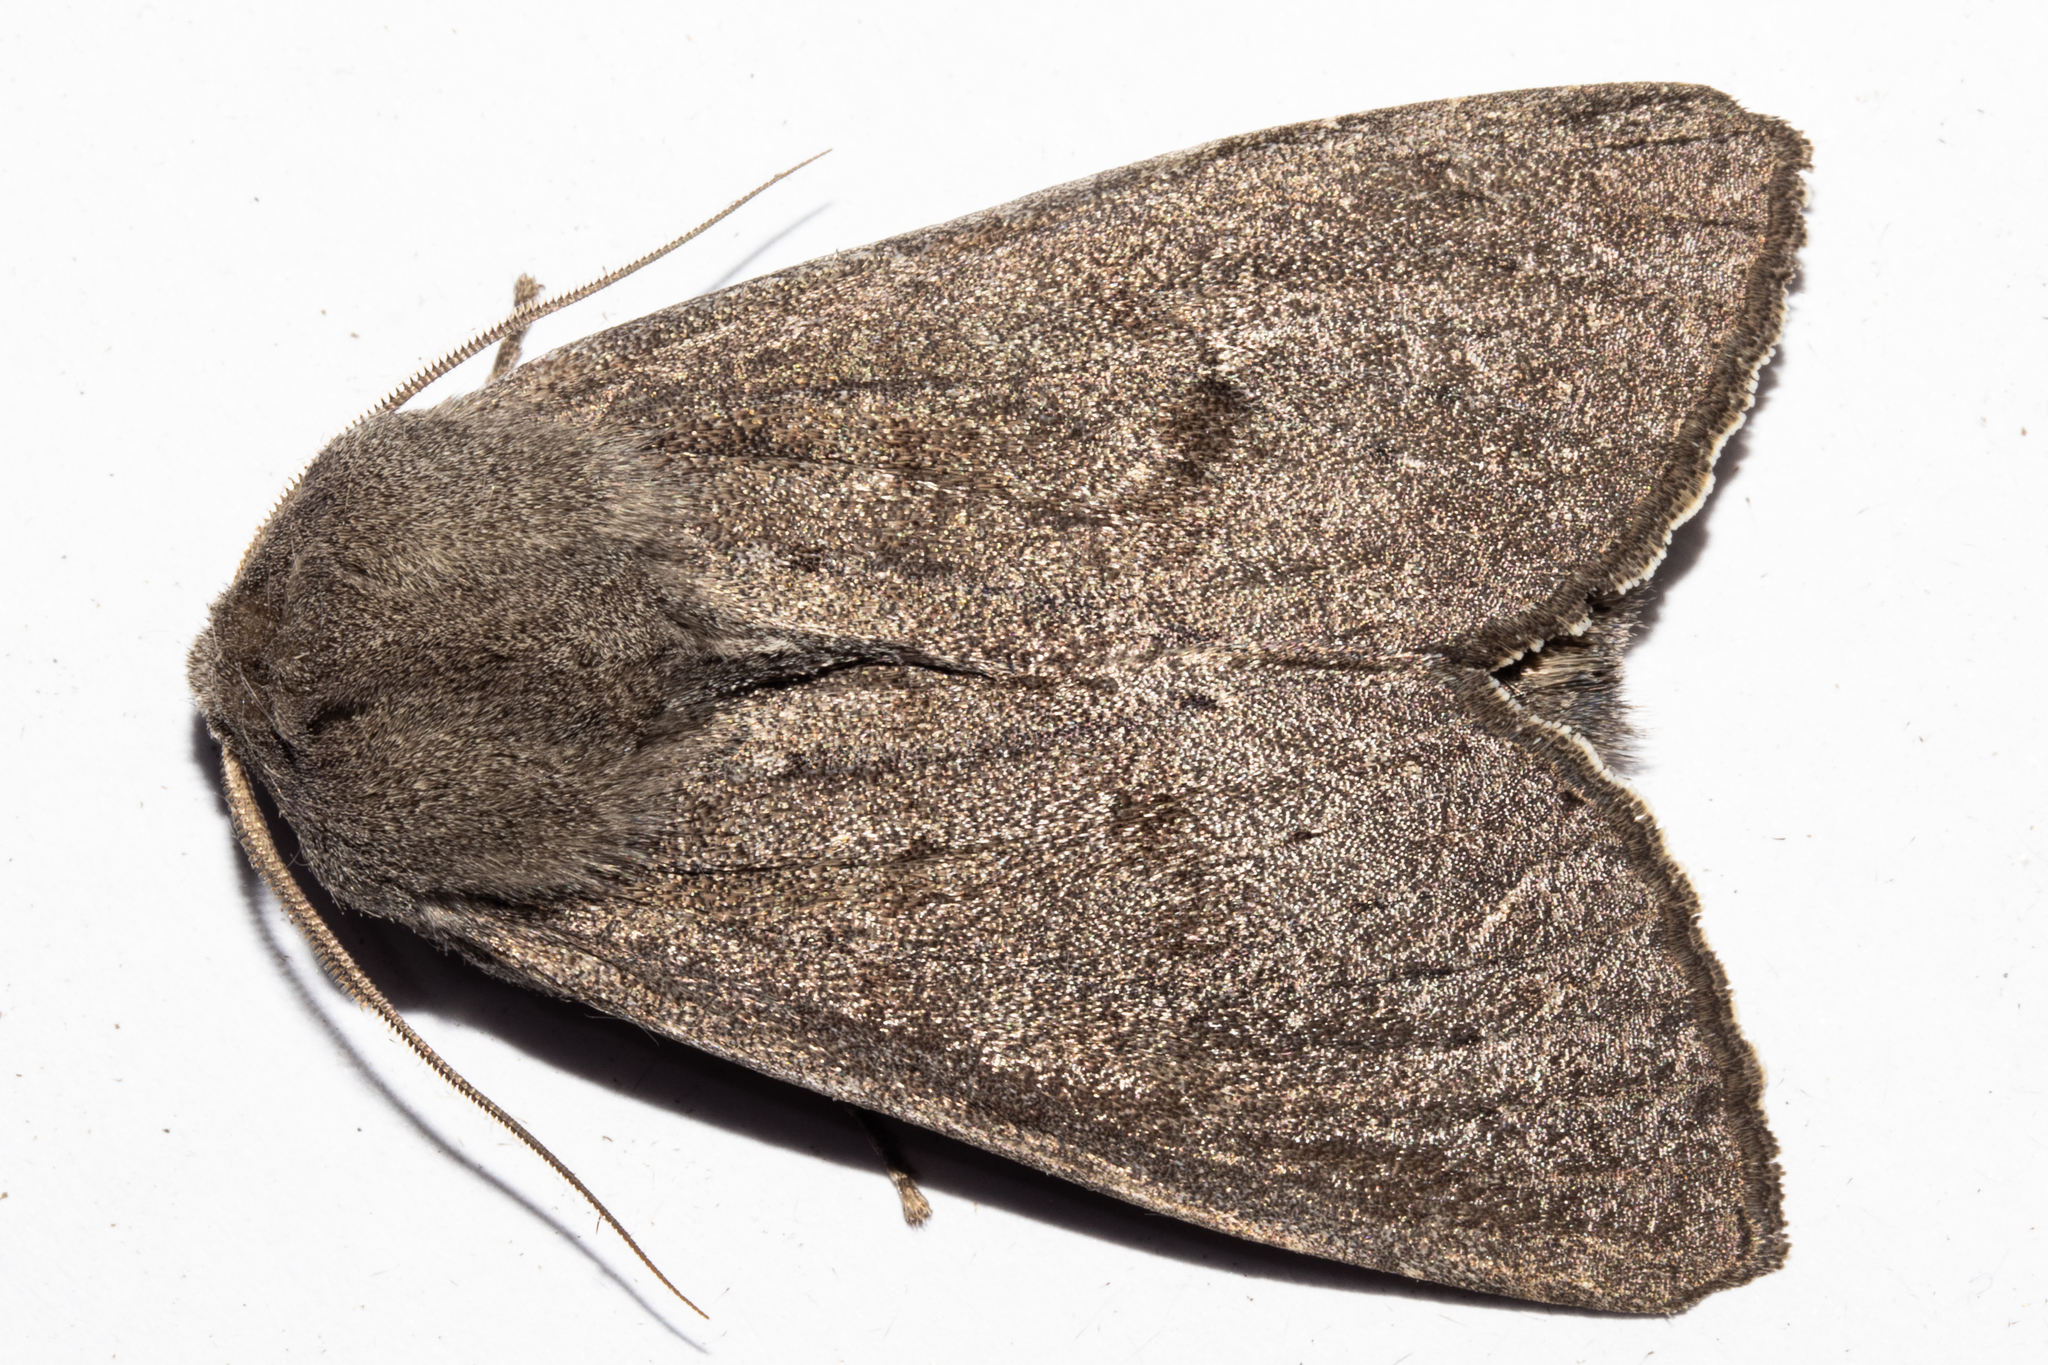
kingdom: Animalia
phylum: Arthropoda
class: Insecta
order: Lepidoptera
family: Noctuidae
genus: Ichneutica
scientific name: Ichneutica nullifera
